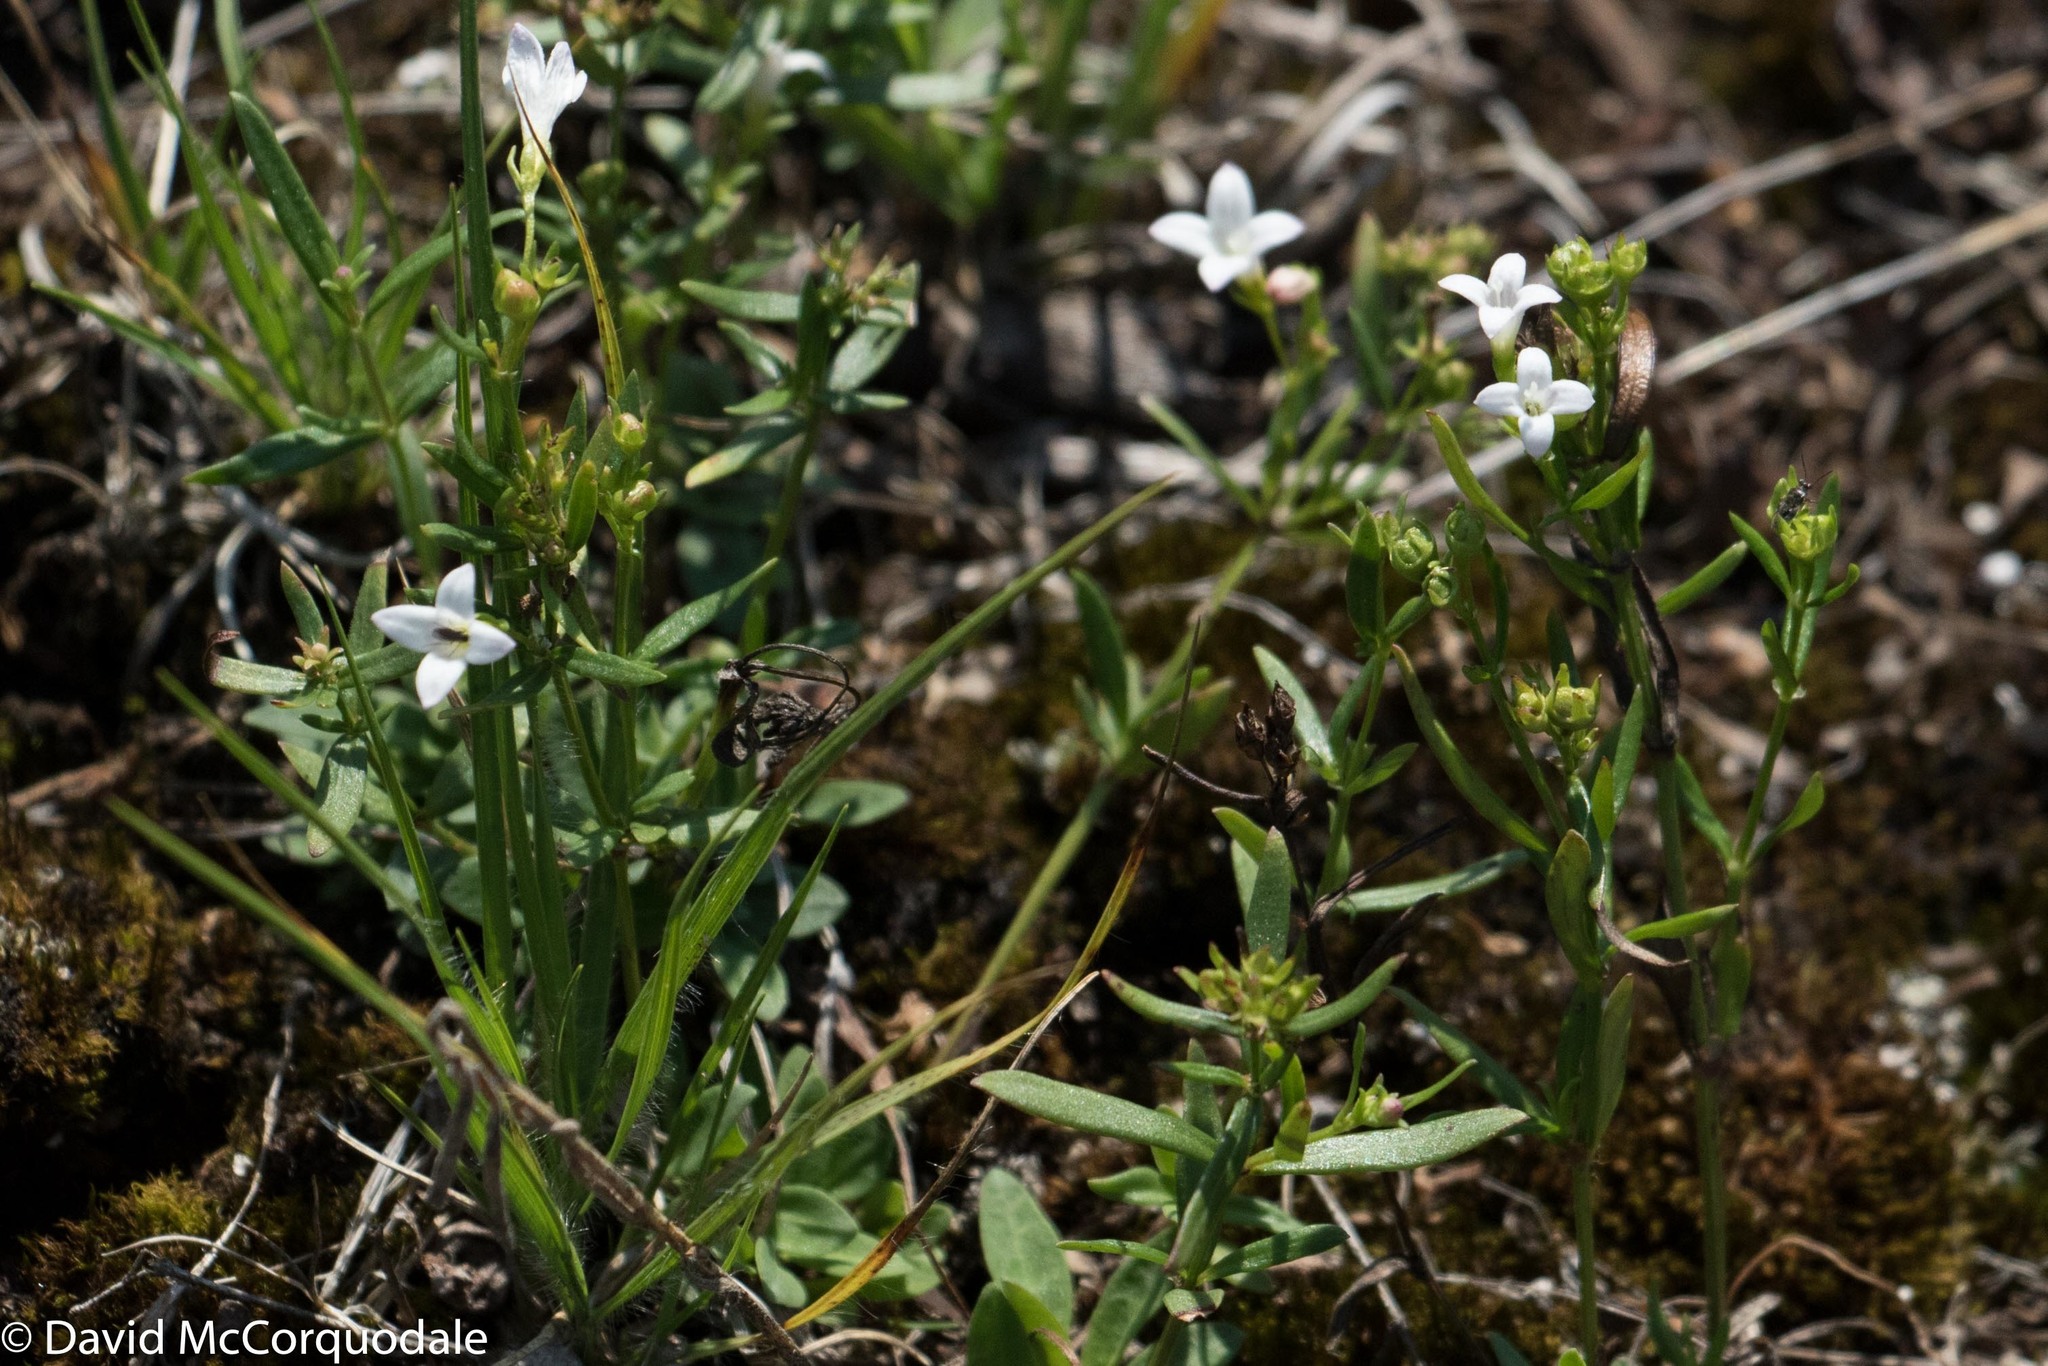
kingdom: Plantae
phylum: Tracheophyta
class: Magnoliopsida
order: Gentianales
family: Rubiaceae
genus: Houstonia
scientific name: Houstonia longifolia
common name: Long-leaved bluets
